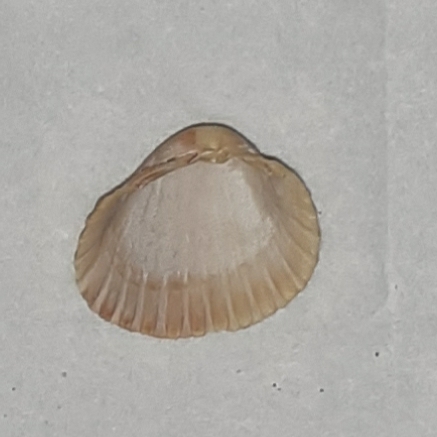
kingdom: Animalia
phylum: Mollusca
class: Bivalvia
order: Cardiida
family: Cardiidae
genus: Cerastoderma
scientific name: Cerastoderma glaucum
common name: Lagoon cockle
